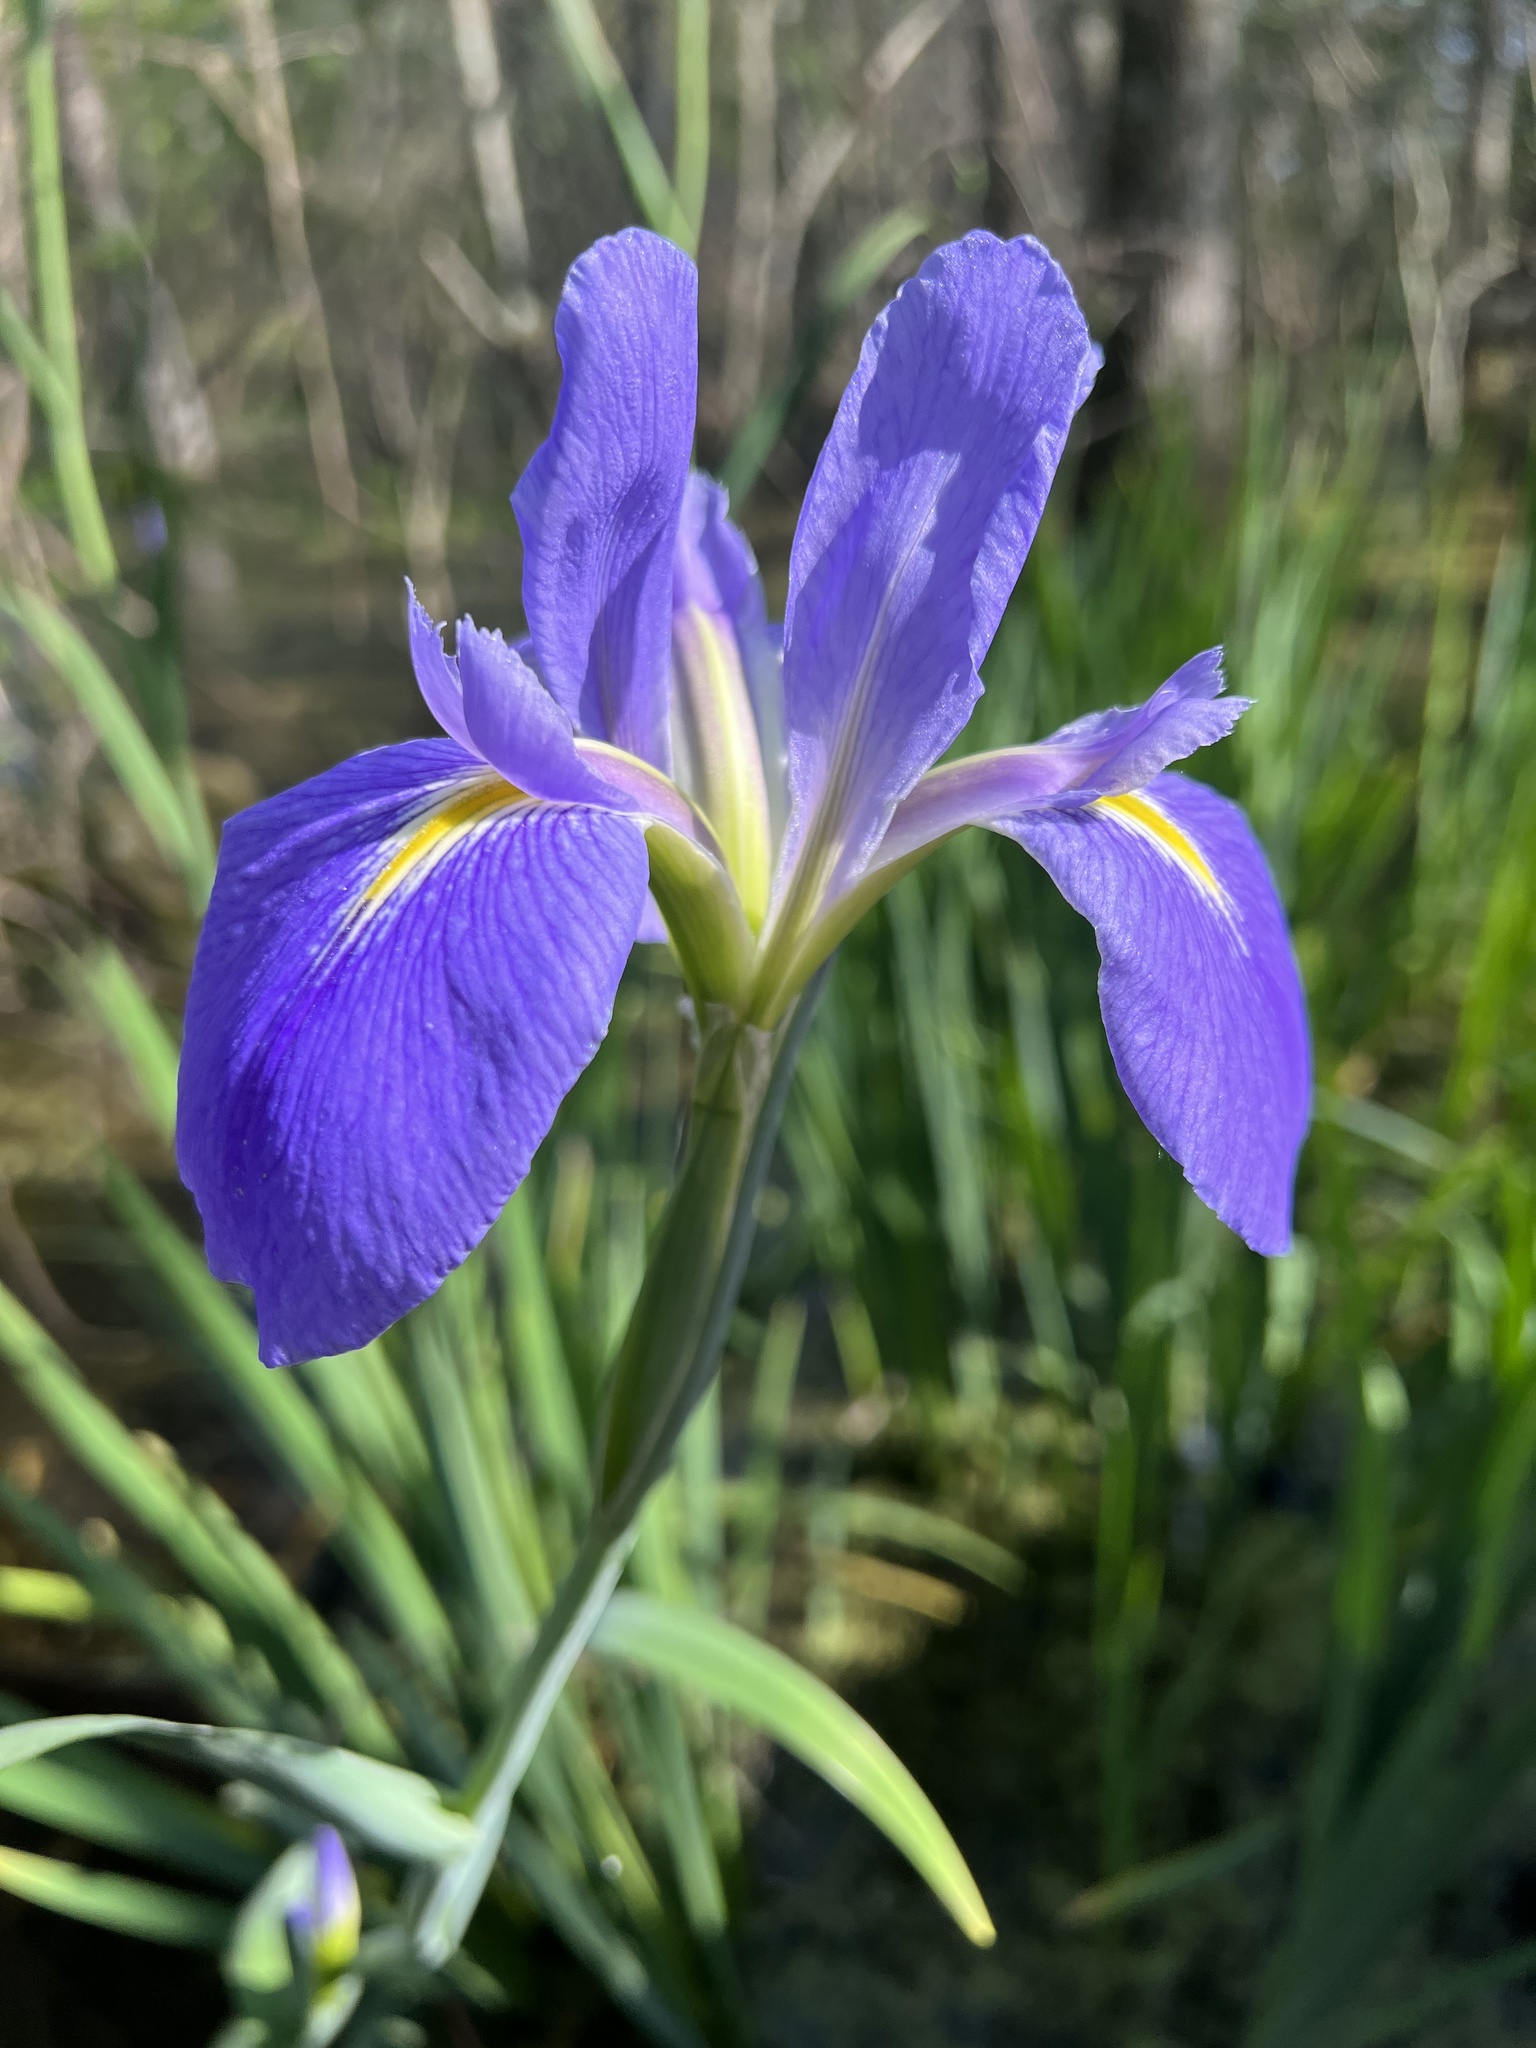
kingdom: Plantae
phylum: Tracheophyta
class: Liliopsida
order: Asparagales
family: Iridaceae
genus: Iris
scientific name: Iris giganticaerulea
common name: Giant blue iris
